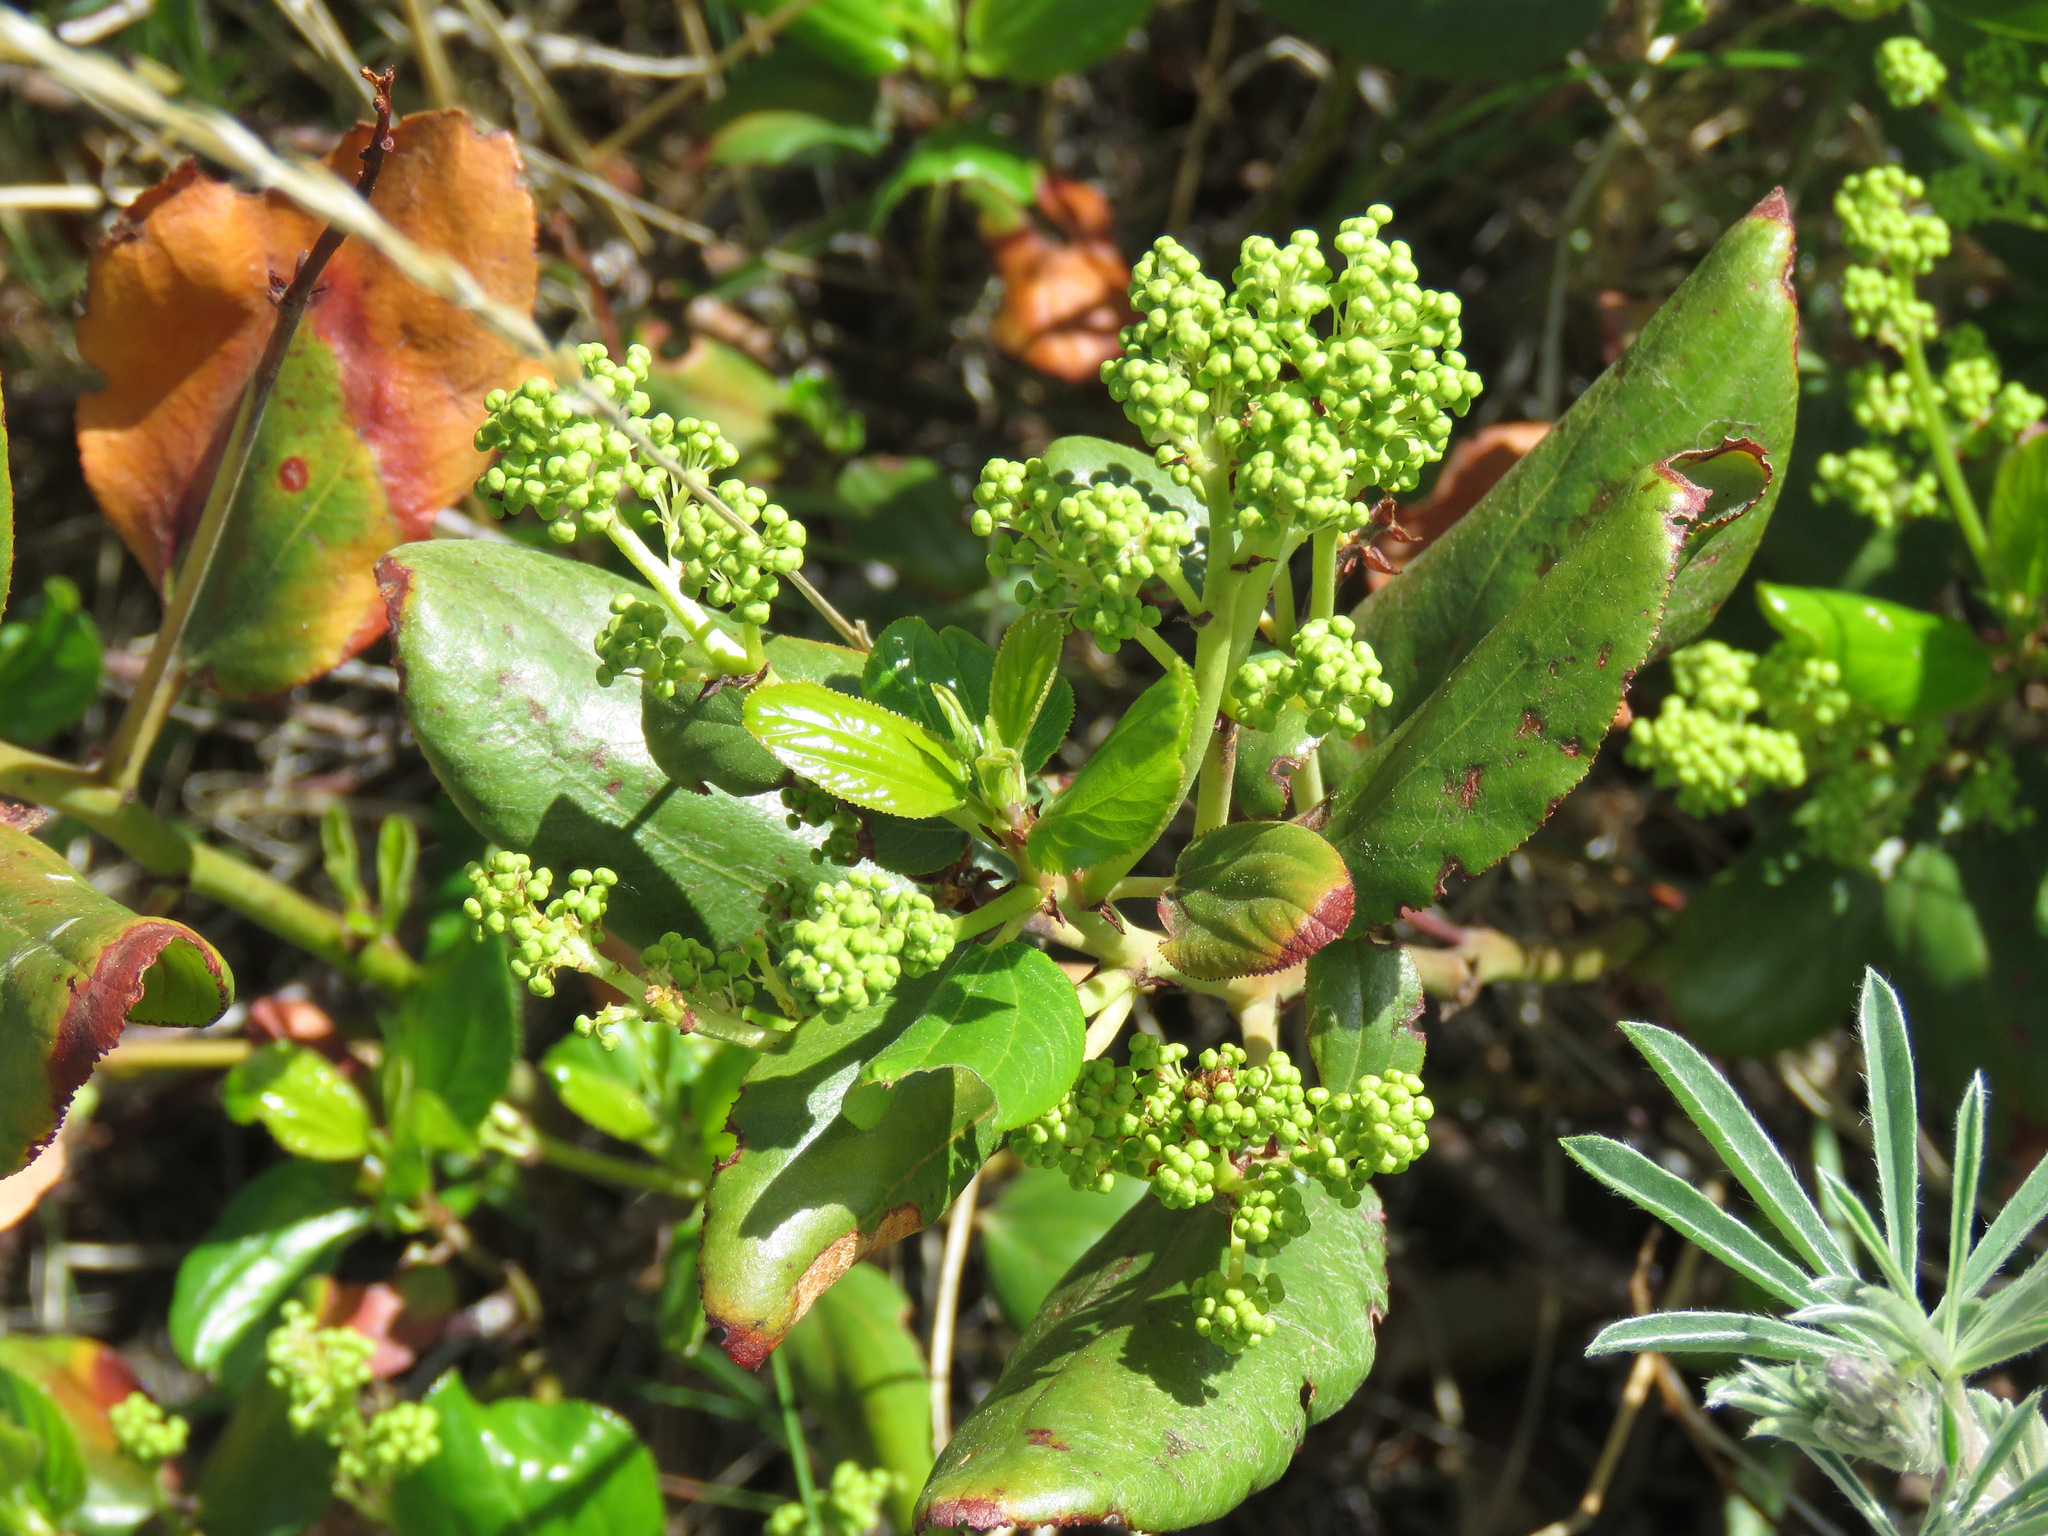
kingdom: Plantae
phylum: Tracheophyta
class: Magnoliopsida
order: Rosales
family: Rhamnaceae
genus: Ceanothus
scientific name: Ceanothus velutinus
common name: Snowbrush
